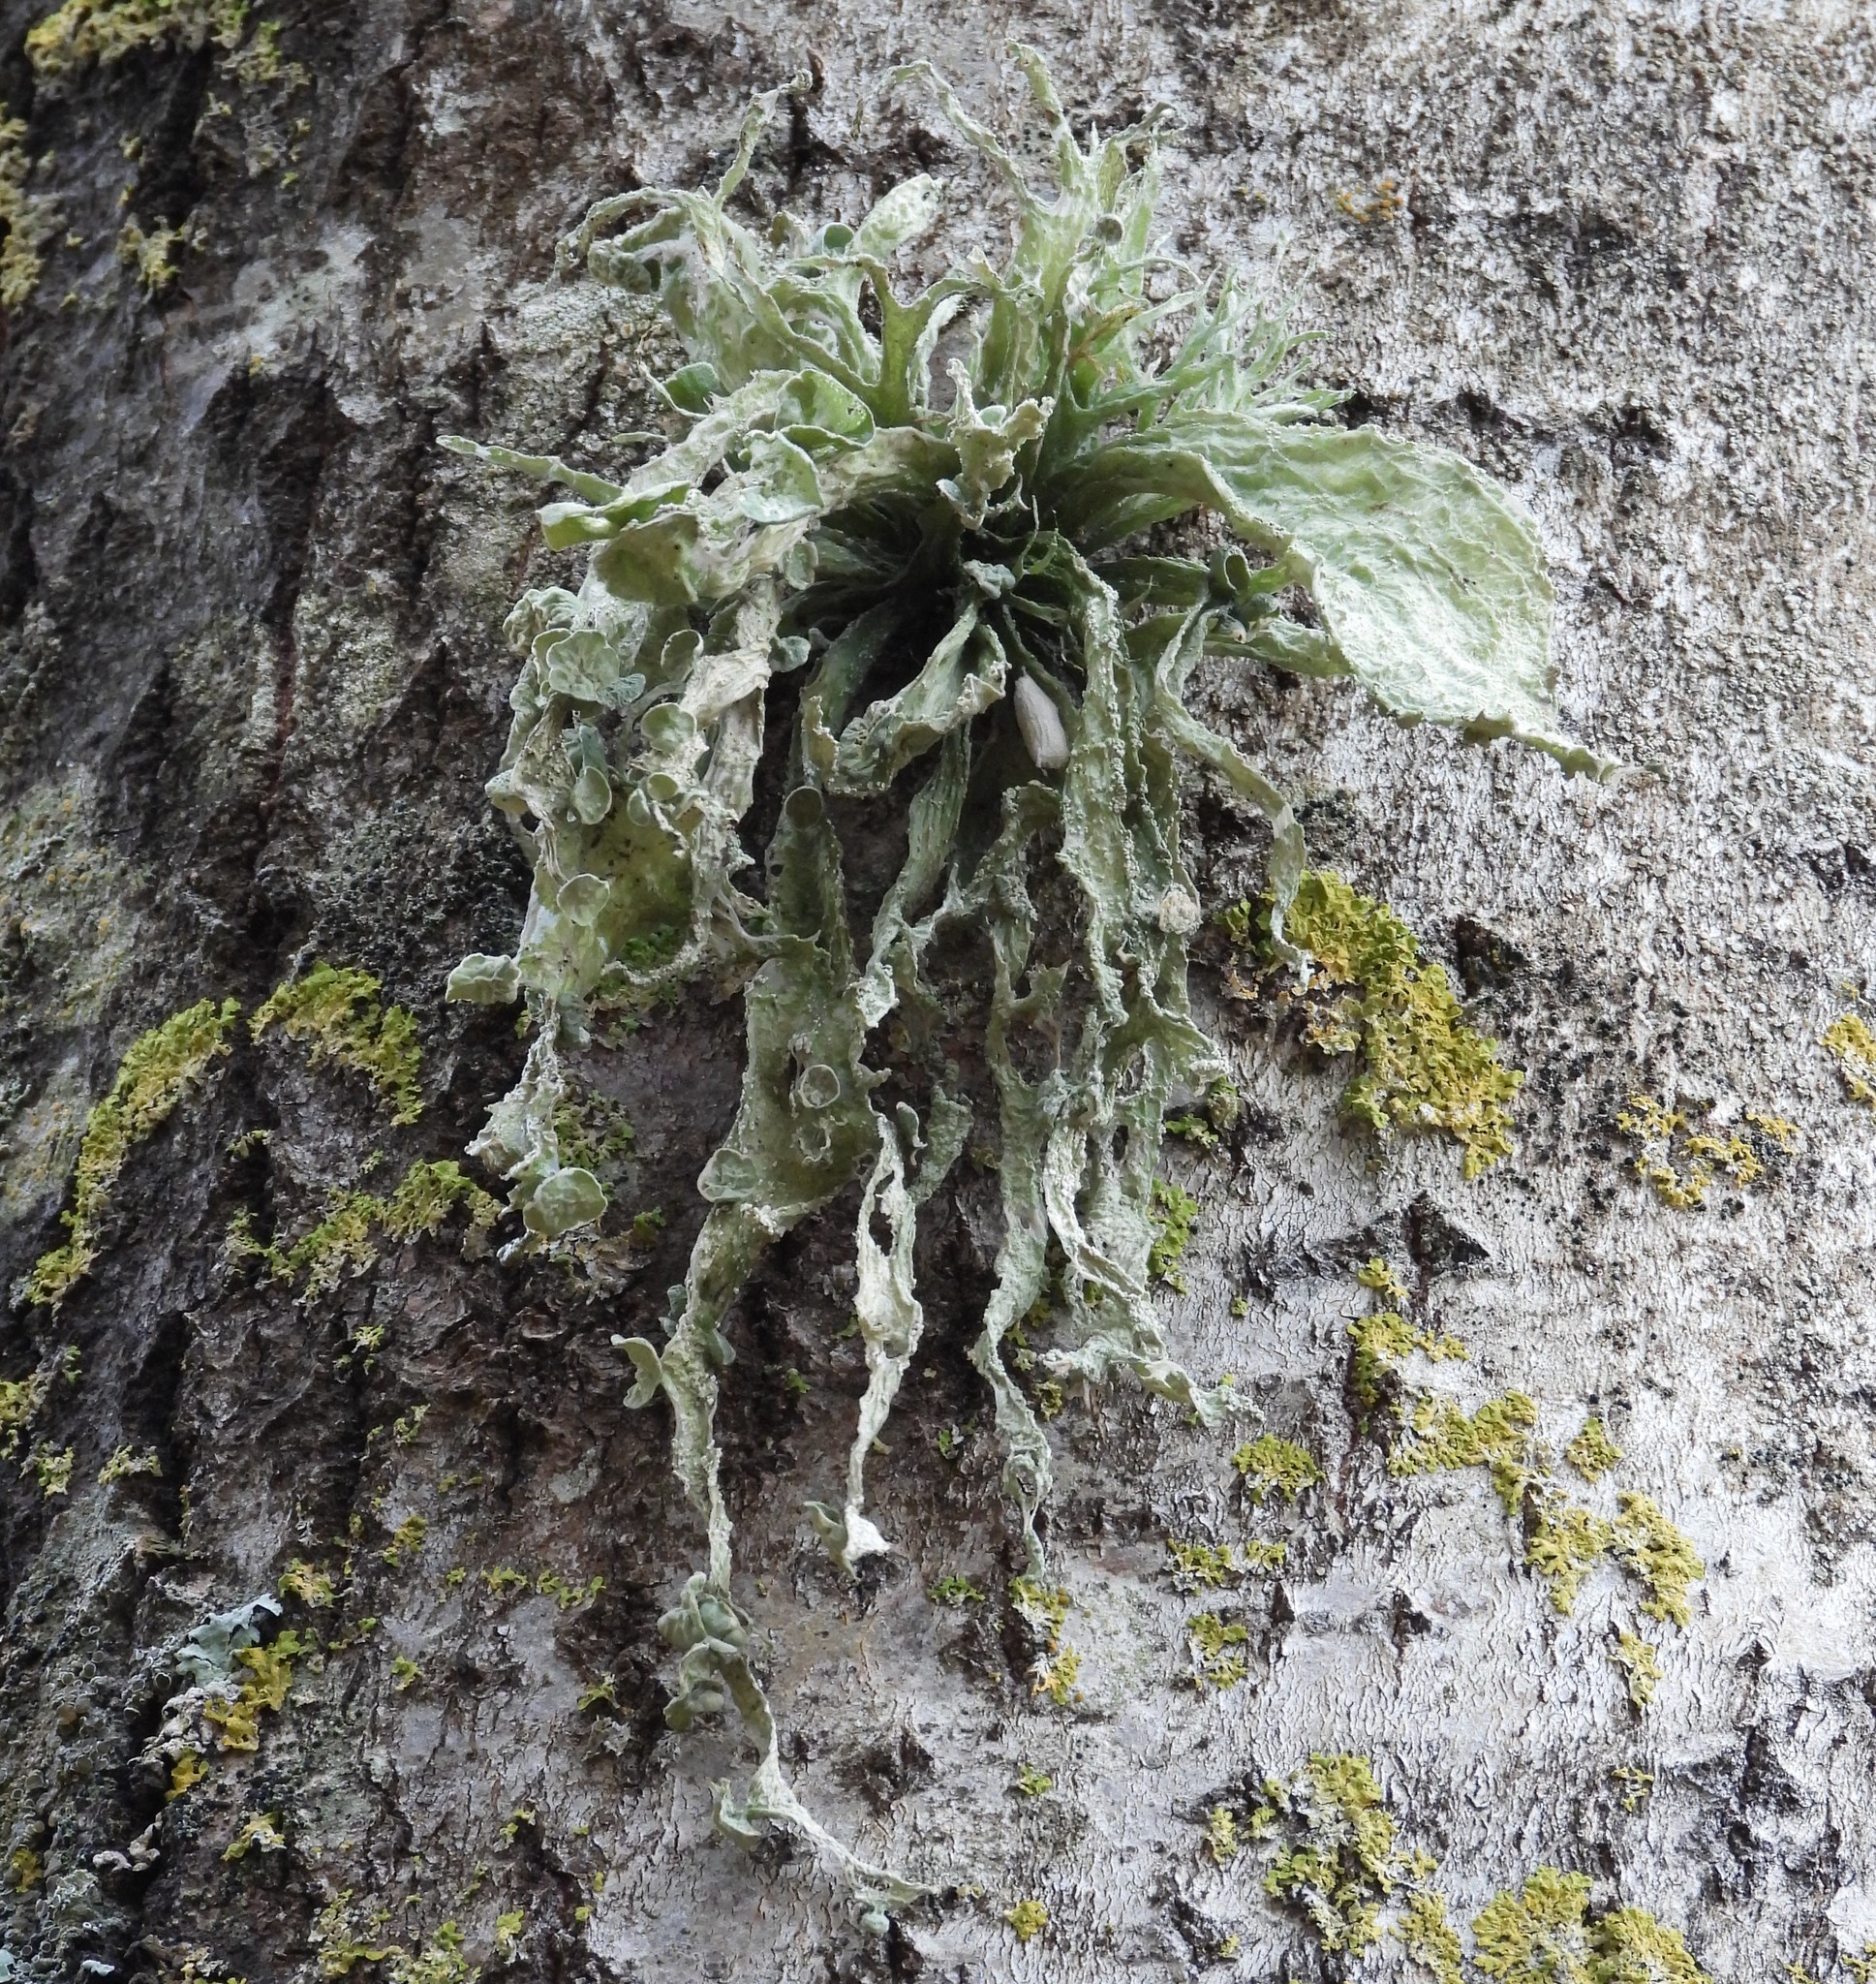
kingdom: Fungi
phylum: Ascomycota
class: Lecanoromycetes
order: Lecanorales
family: Ramalinaceae
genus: Ramalina
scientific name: Ramalina fraxinea
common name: Cartilage lichen
